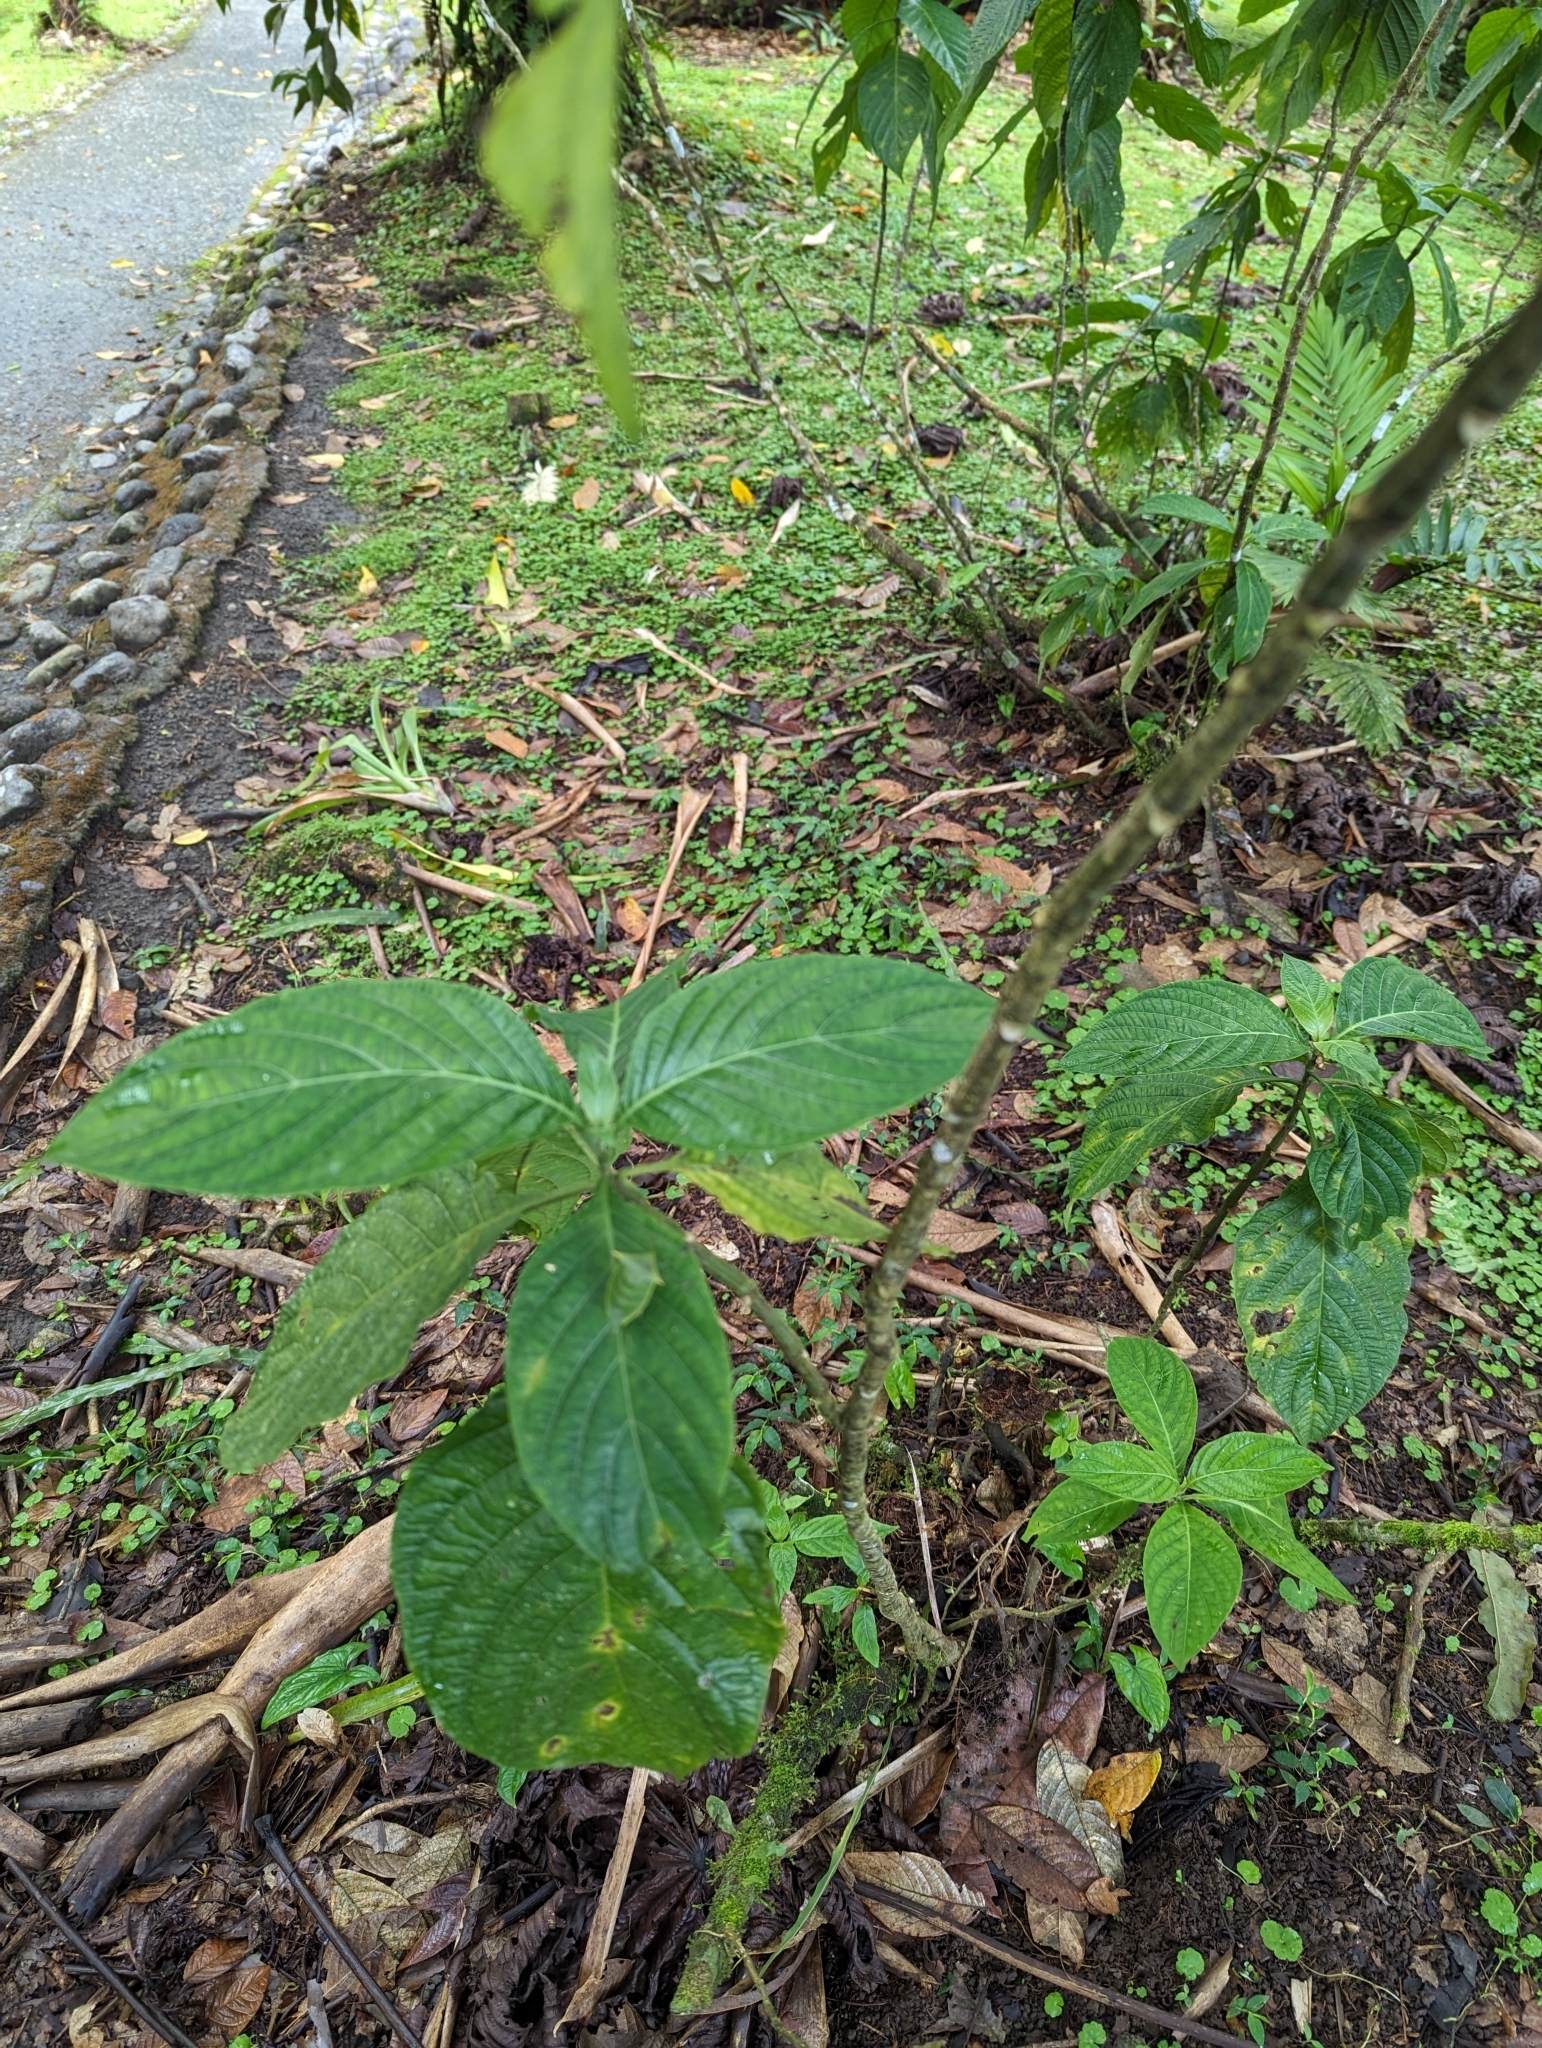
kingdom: Plantae
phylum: Tracheophyta
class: Magnoliopsida
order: Lamiales
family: Acanthaceae
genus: Justicia
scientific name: Justicia aurea
